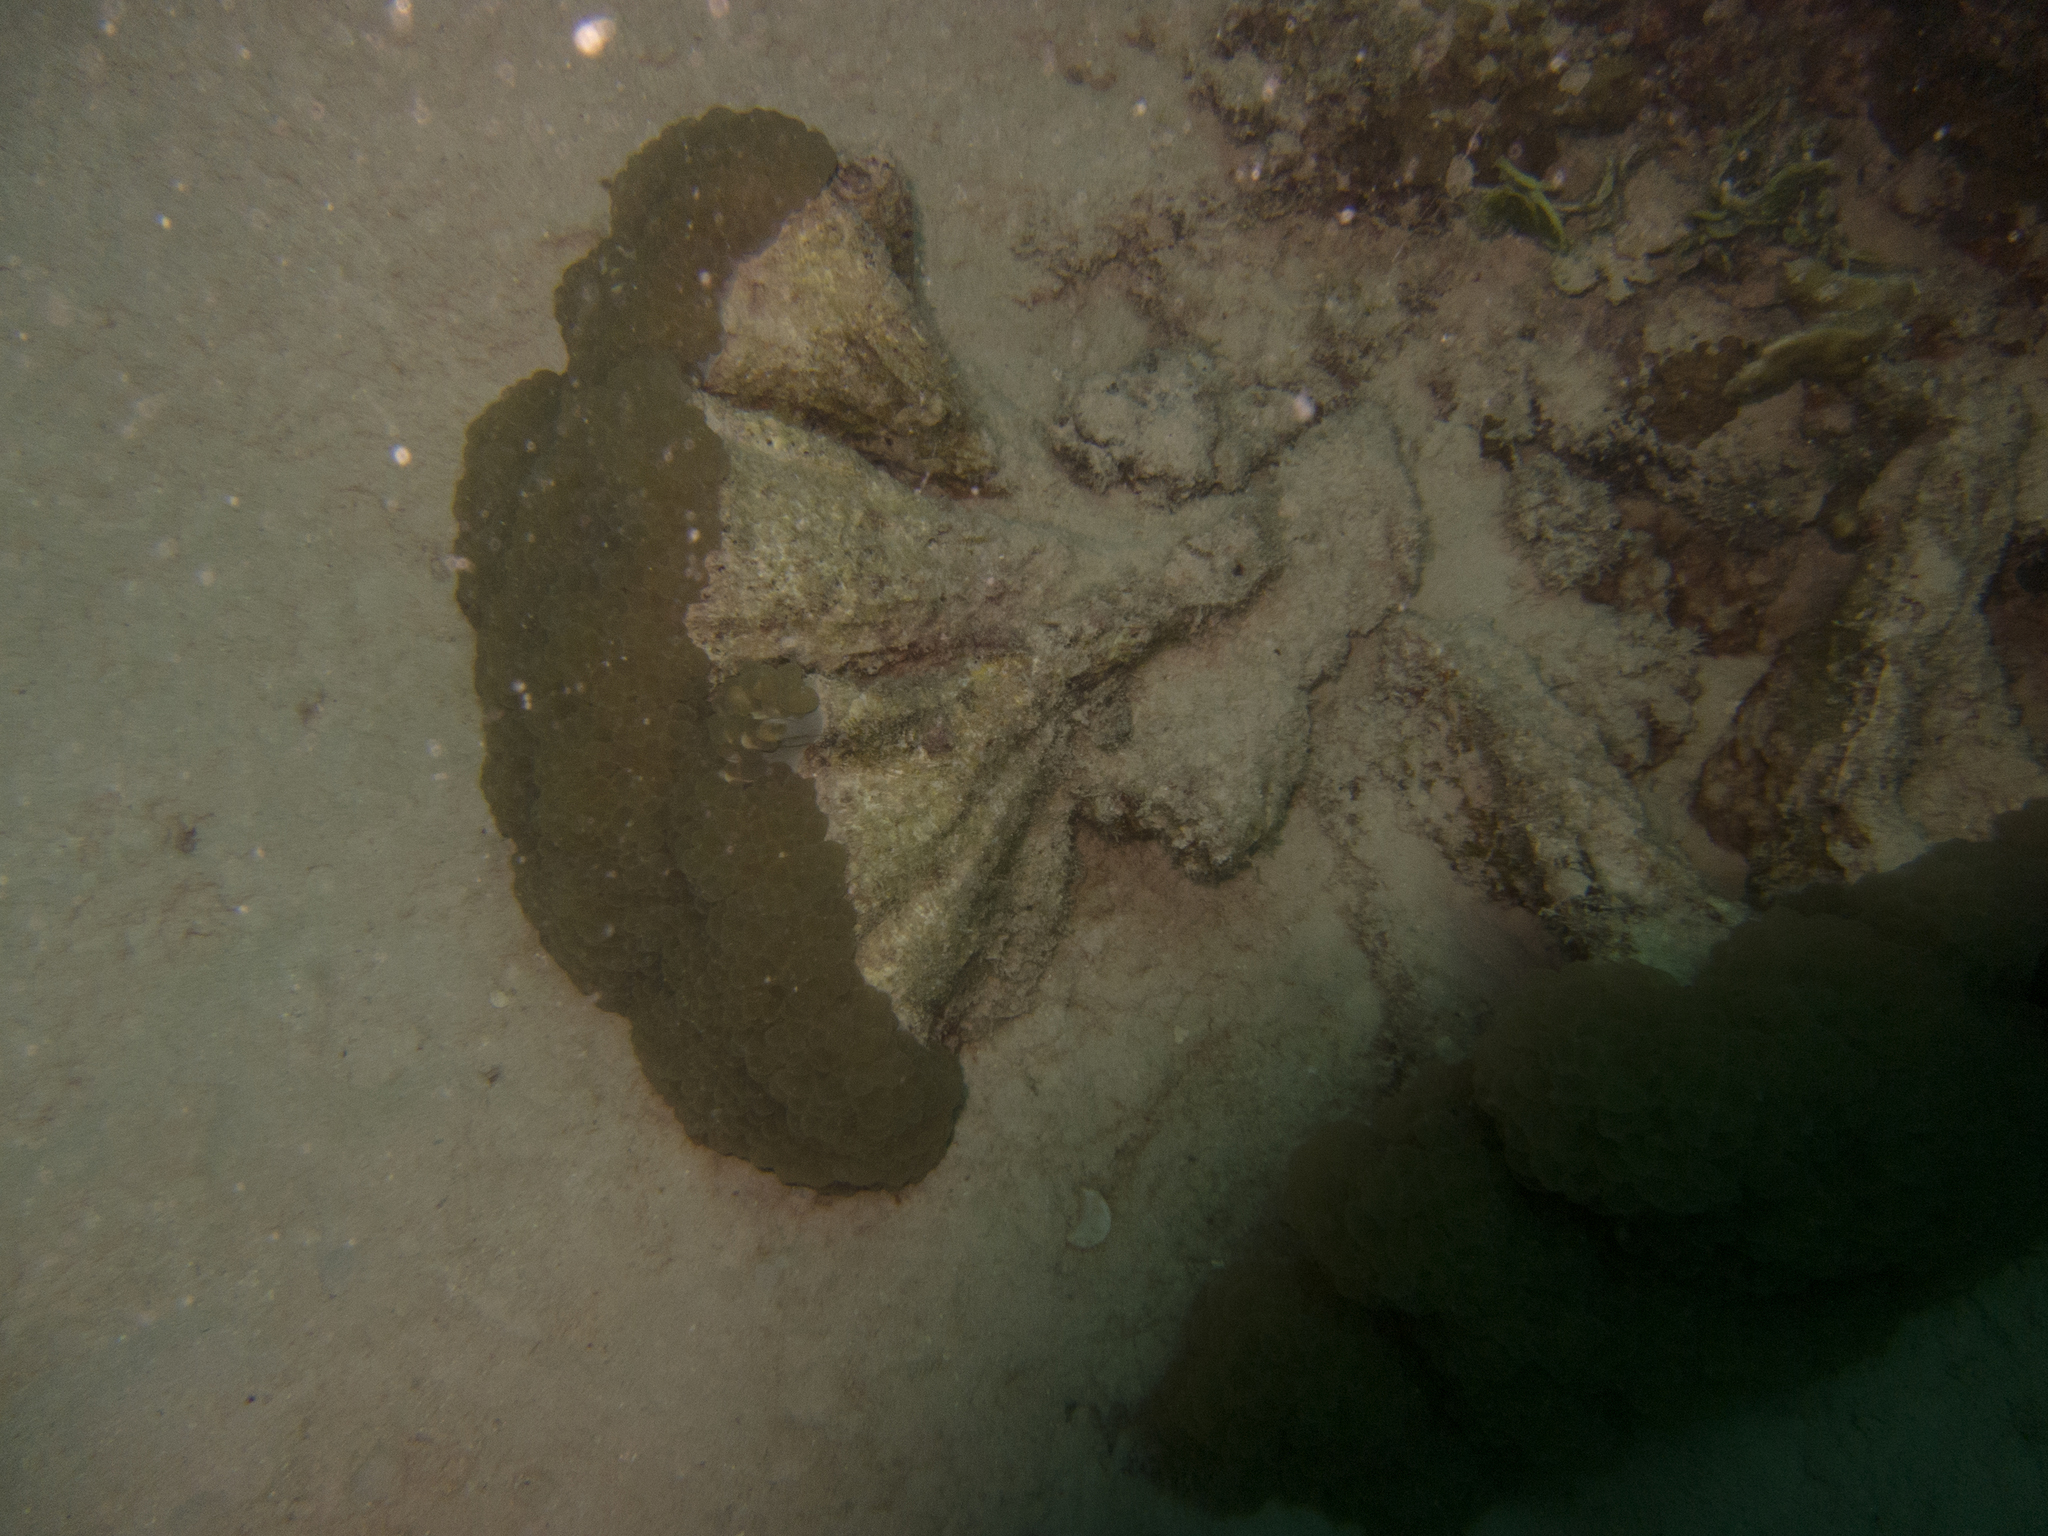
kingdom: Animalia
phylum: Cnidaria
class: Anthozoa
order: Scleractinia
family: Plerogyridae
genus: Plerogyra
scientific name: Plerogyra sinuosa
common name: Bubble coral
